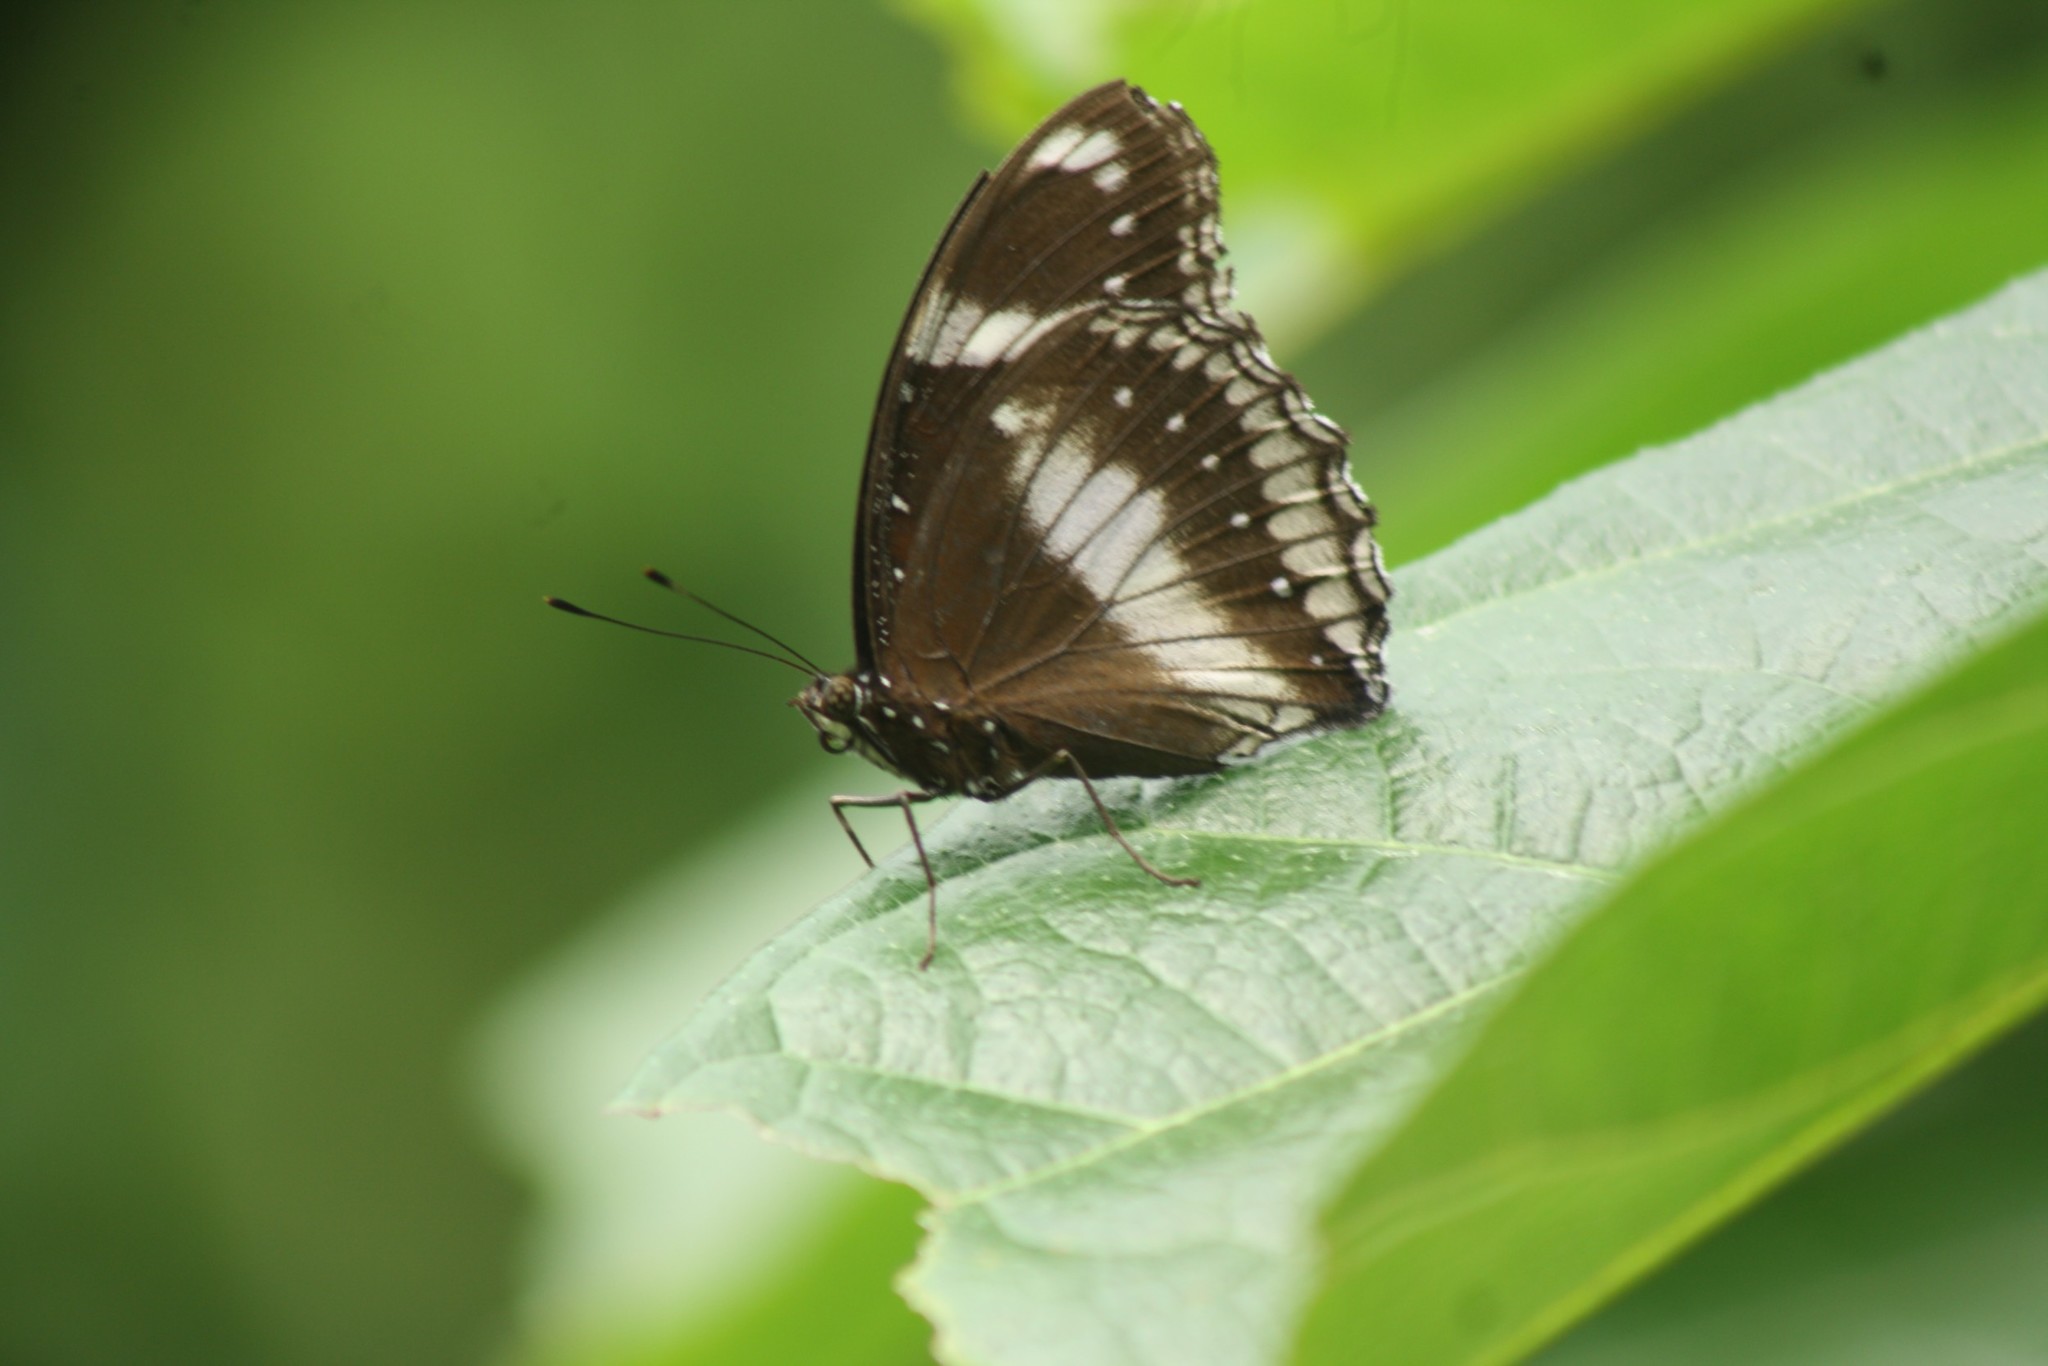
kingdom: Animalia
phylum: Arthropoda
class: Insecta
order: Lepidoptera
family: Nymphalidae
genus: Hypolimnas
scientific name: Hypolimnas bolina
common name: Great eggfly
